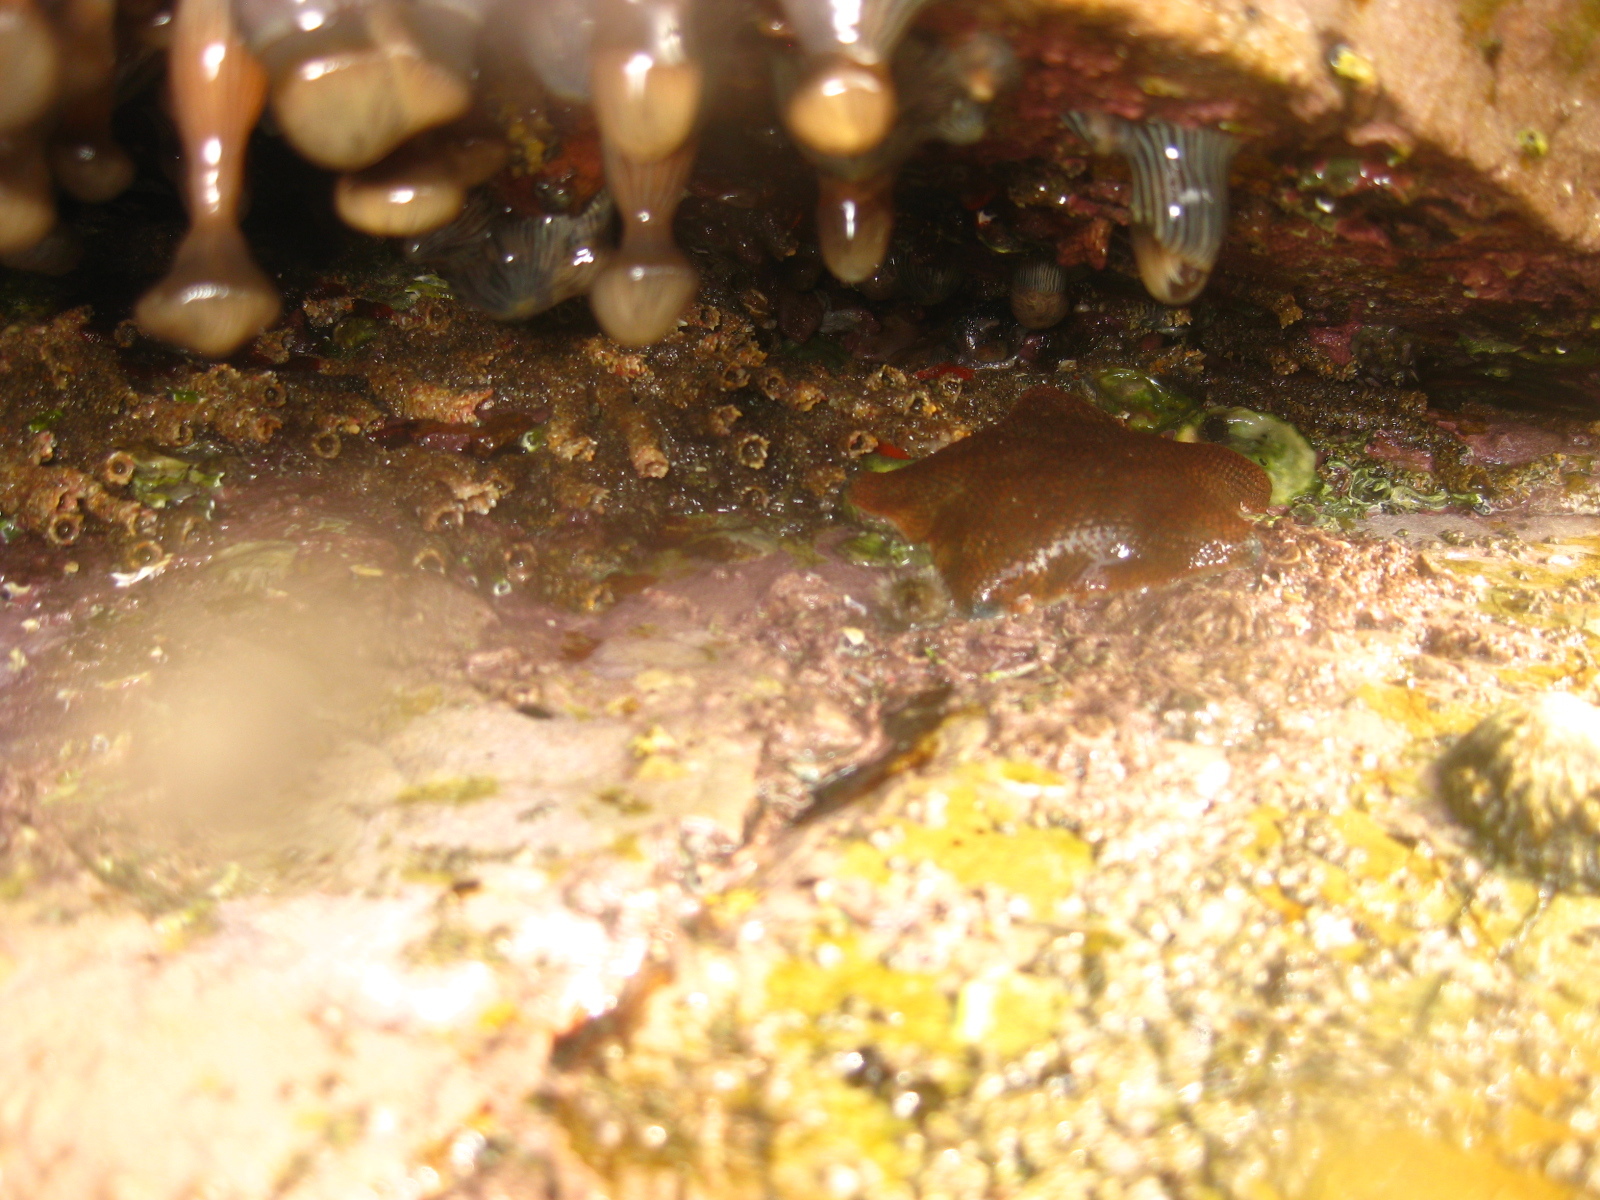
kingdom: Animalia
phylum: Echinodermata
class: Asteroidea
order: Valvatida
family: Asterinidae
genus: Patiriella
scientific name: Patiriella regularis
